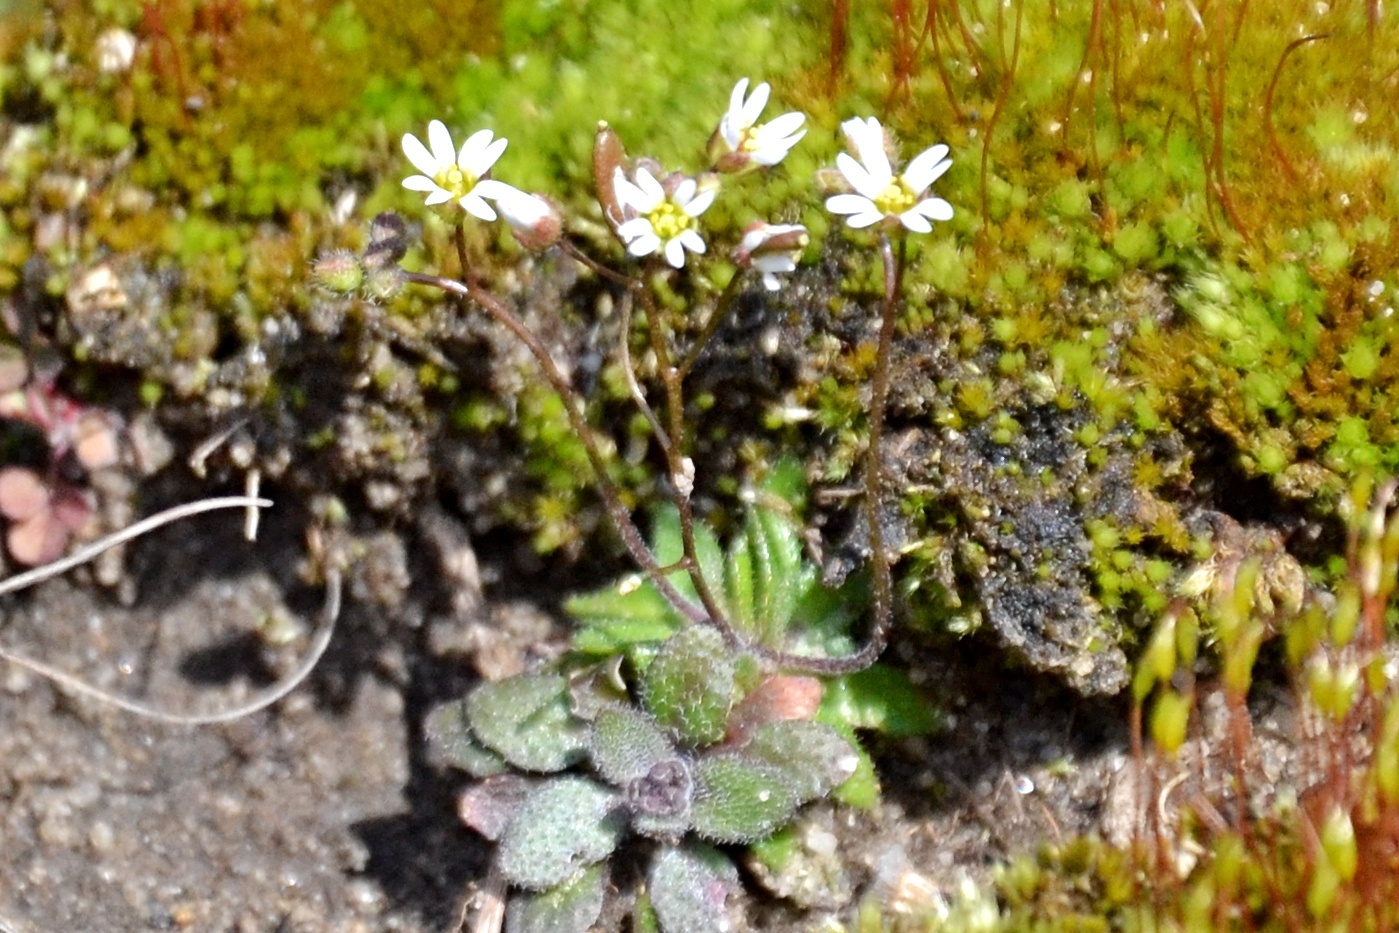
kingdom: Plantae
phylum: Tracheophyta
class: Magnoliopsida
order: Brassicales
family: Brassicaceae
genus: Draba
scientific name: Draba verna
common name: Spring draba
